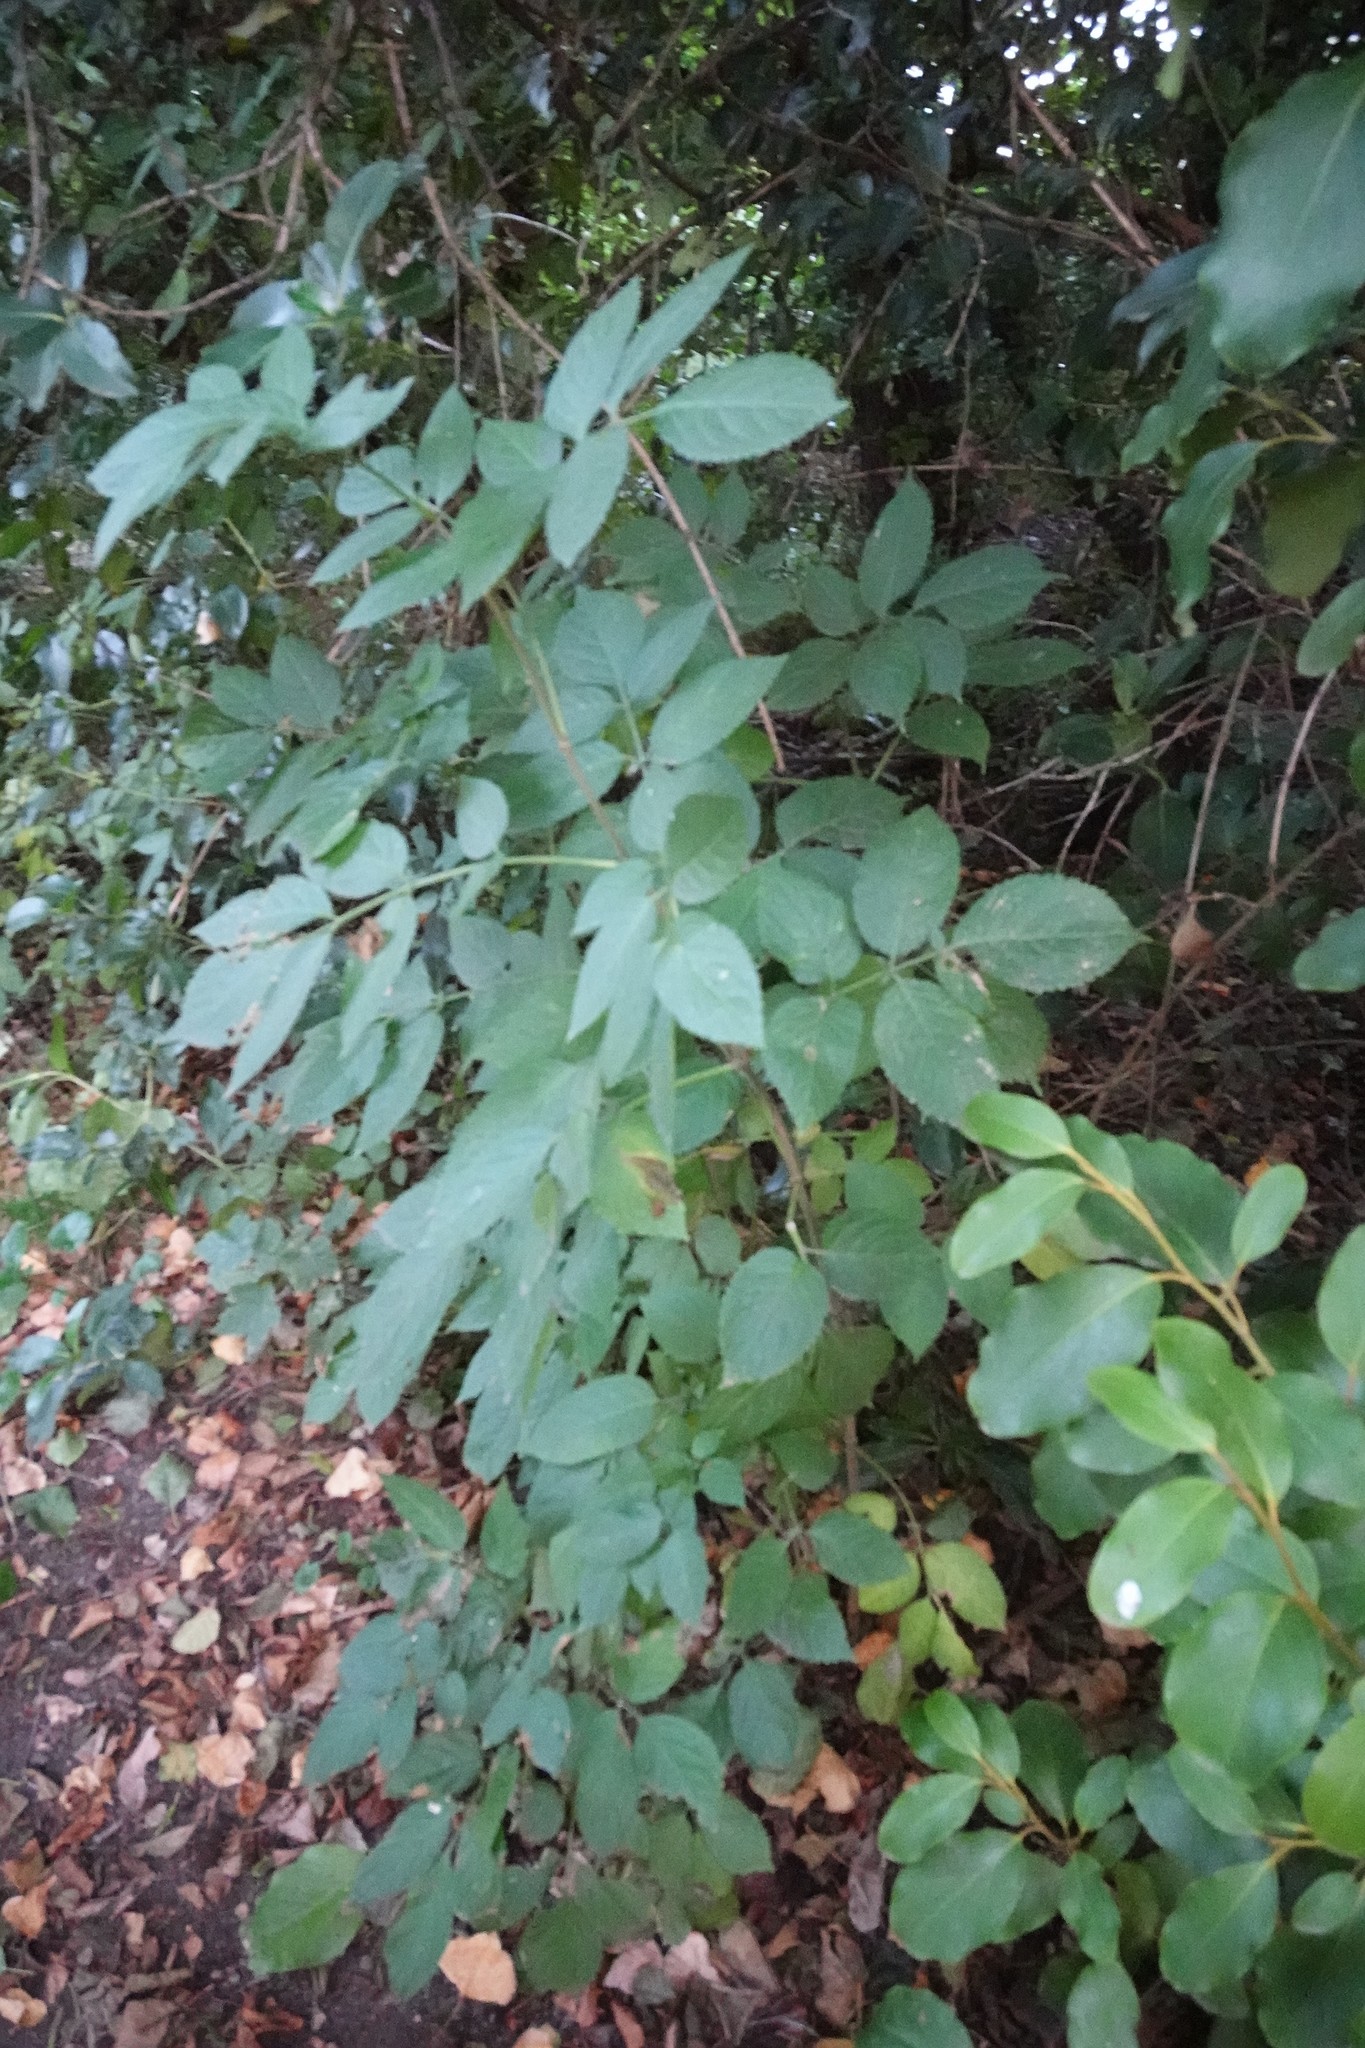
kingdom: Plantae
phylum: Tracheophyta
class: Magnoliopsida
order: Dipsacales
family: Viburnaceae
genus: Sambucus
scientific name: Sambucus nigra
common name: Elder
